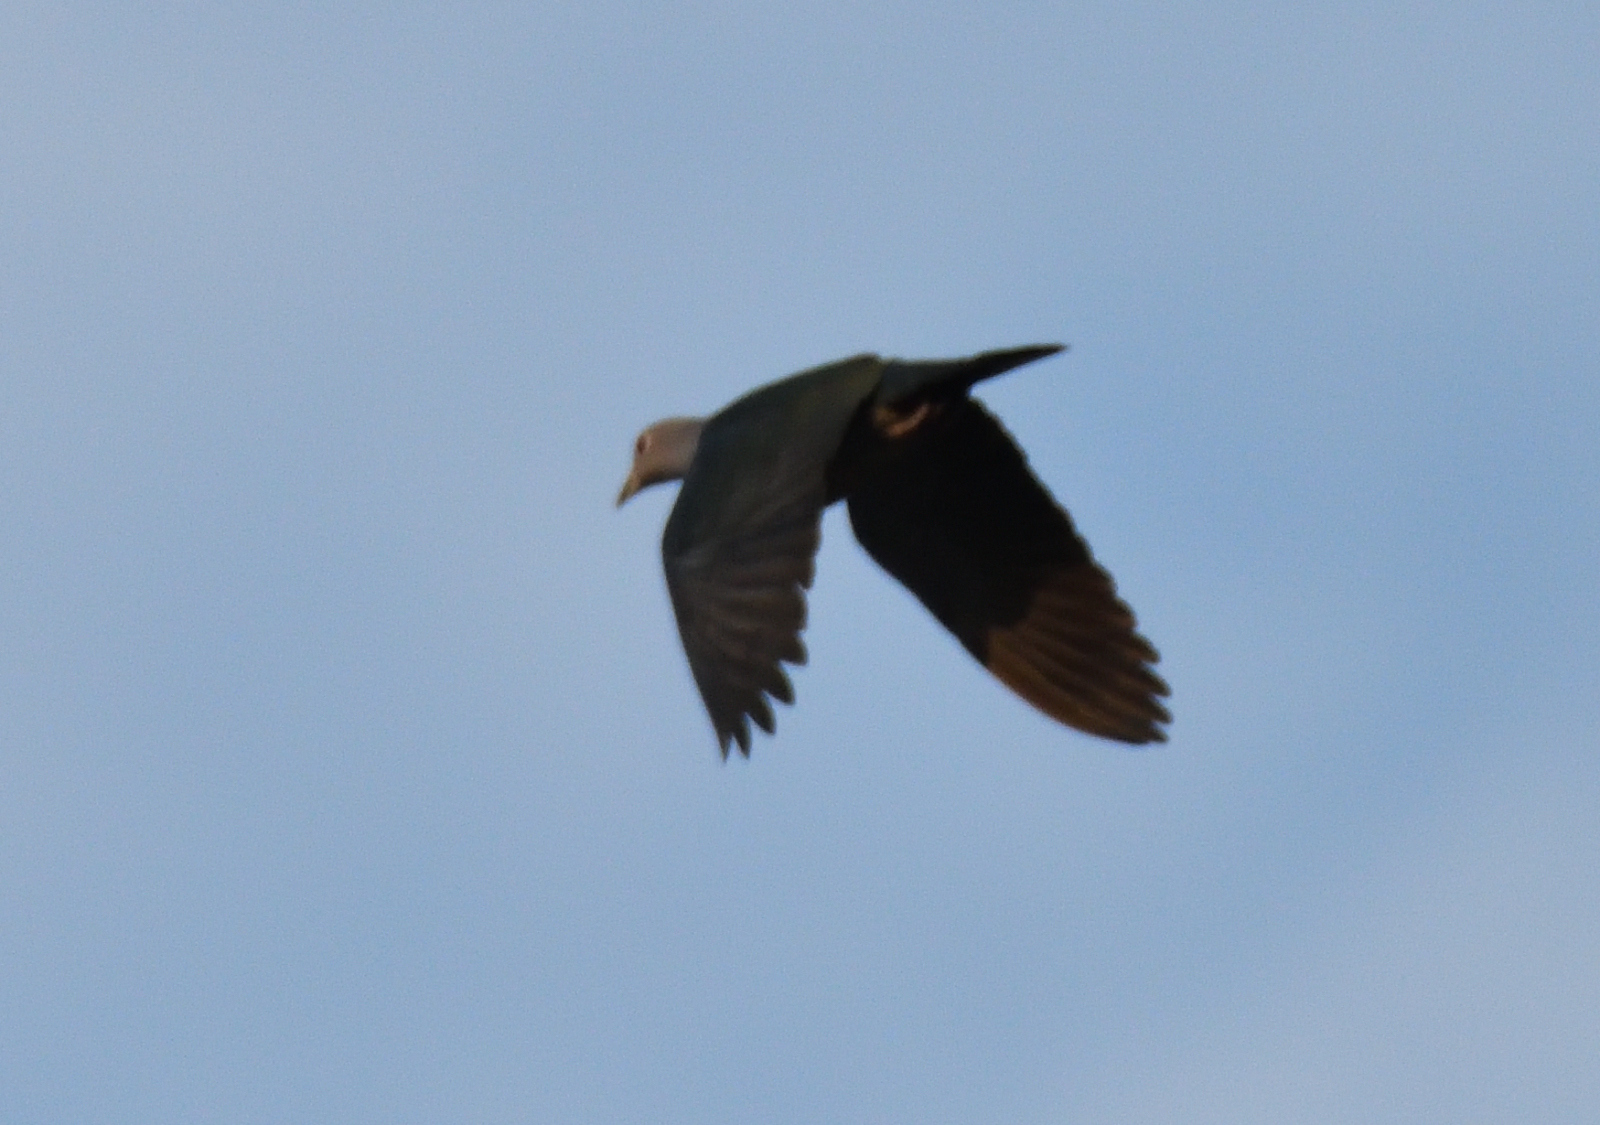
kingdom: Animalia
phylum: Chordata
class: Aves
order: Columbiformes
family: Columbidae
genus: Ducula
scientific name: Ducula aenea
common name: Green imperial pigeon
